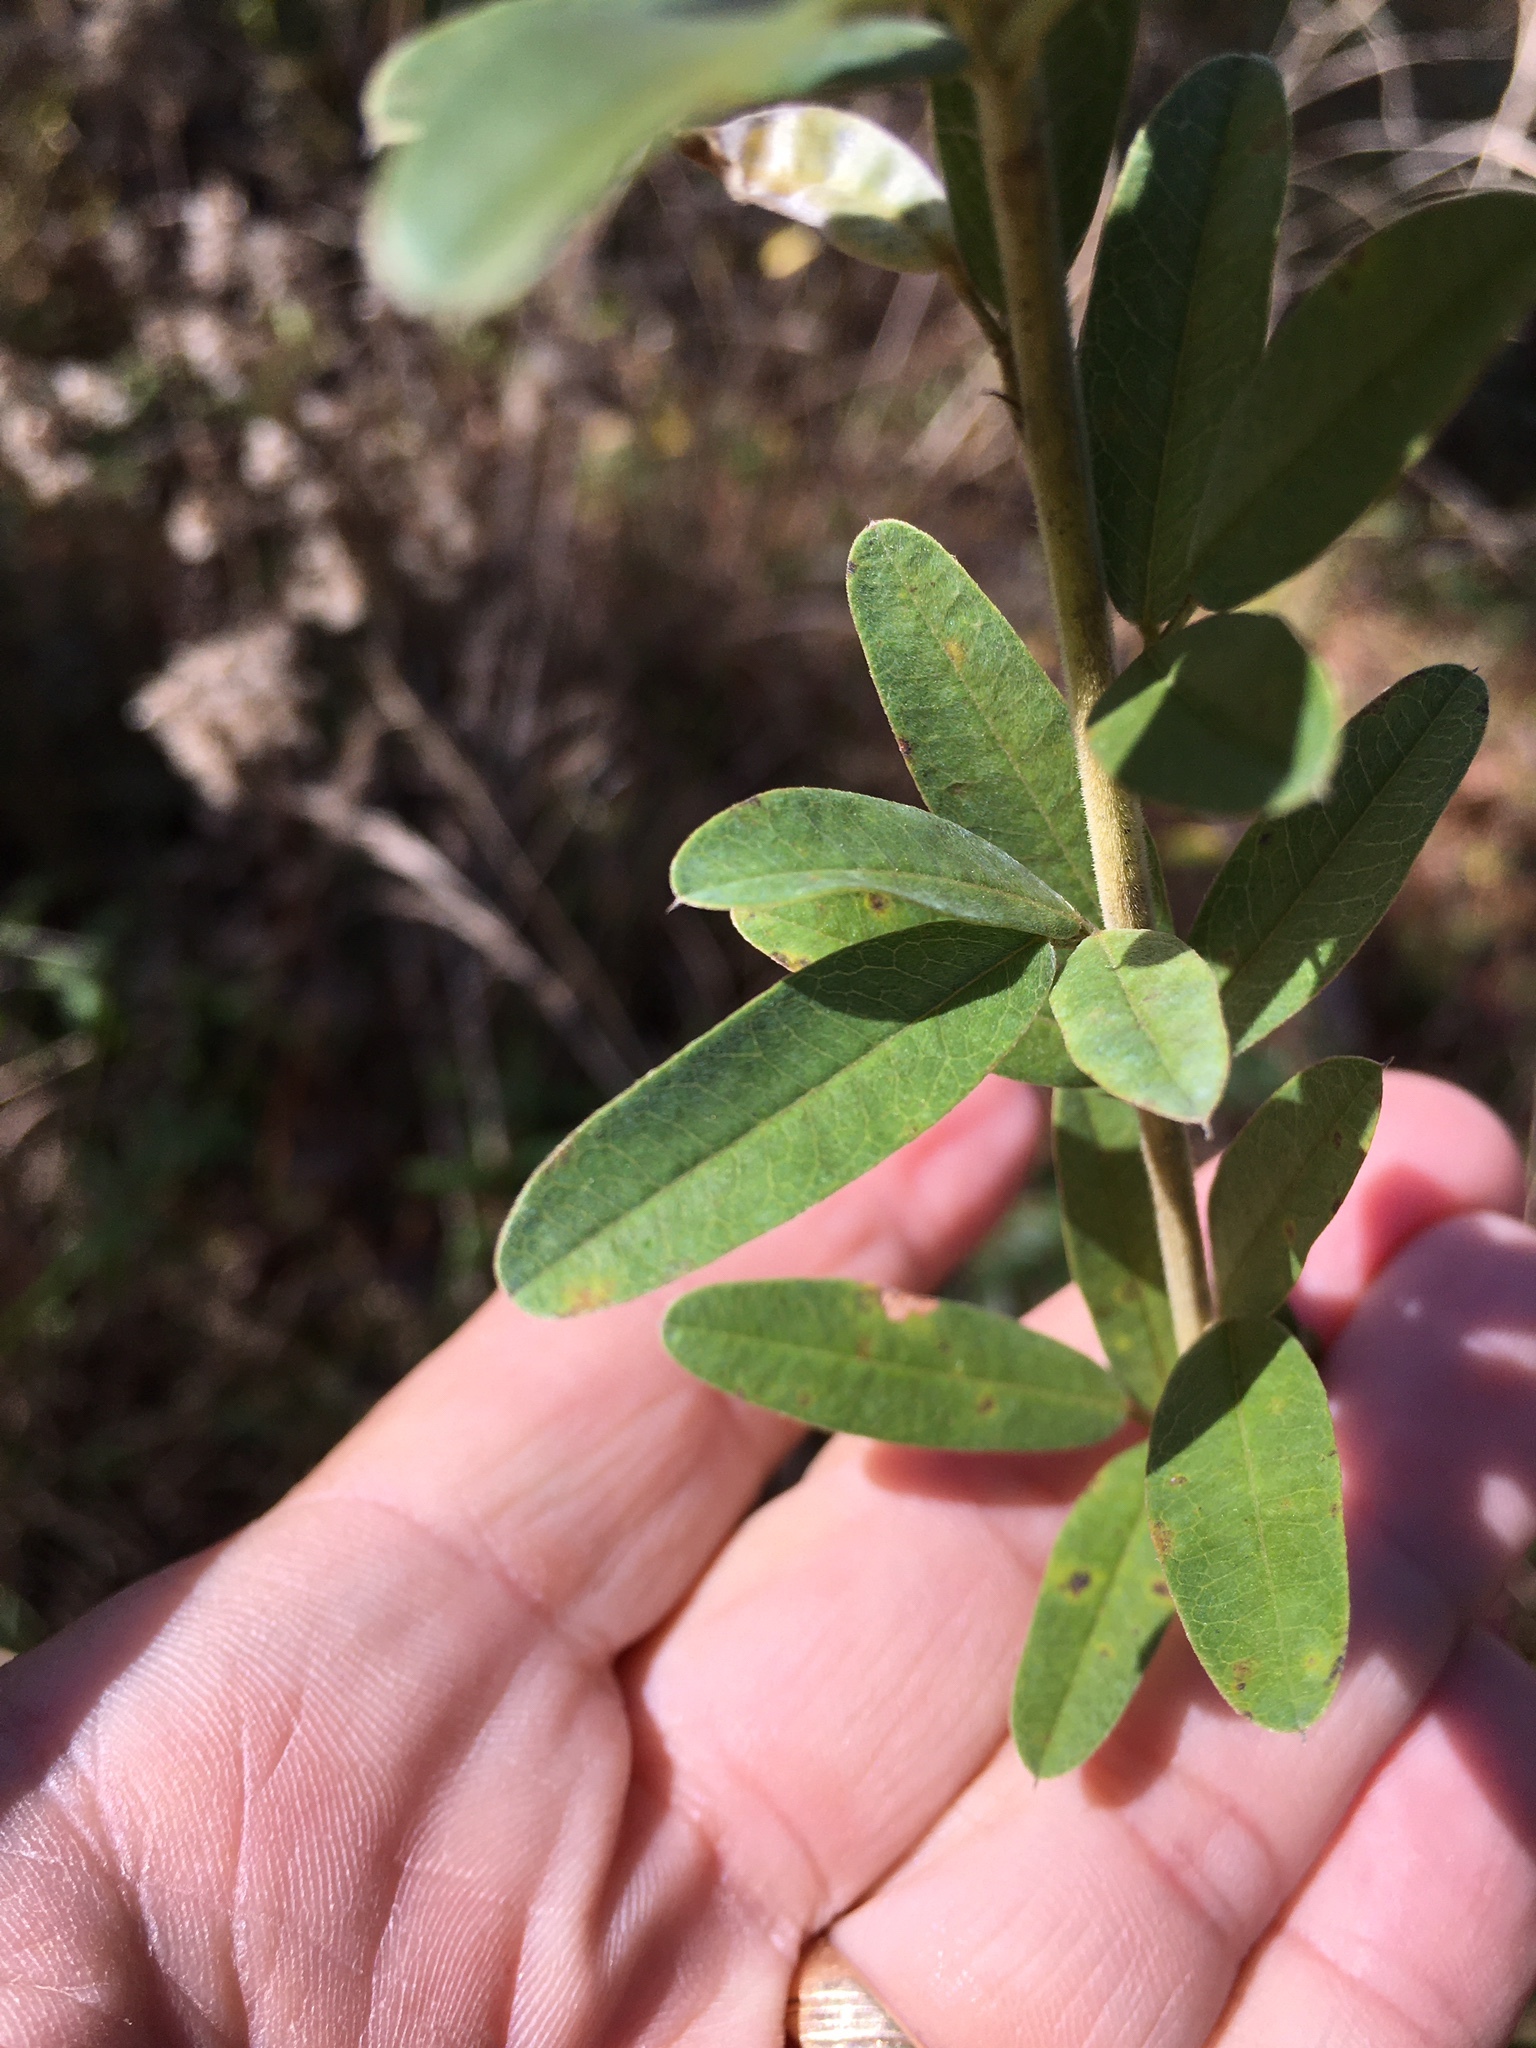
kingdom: Plantae
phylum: Tracheophyta
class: Magnoliopsida
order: Fabales
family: Fabaceae
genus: Lespedeza
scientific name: Lespedeza capitata
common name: Dusty clover
